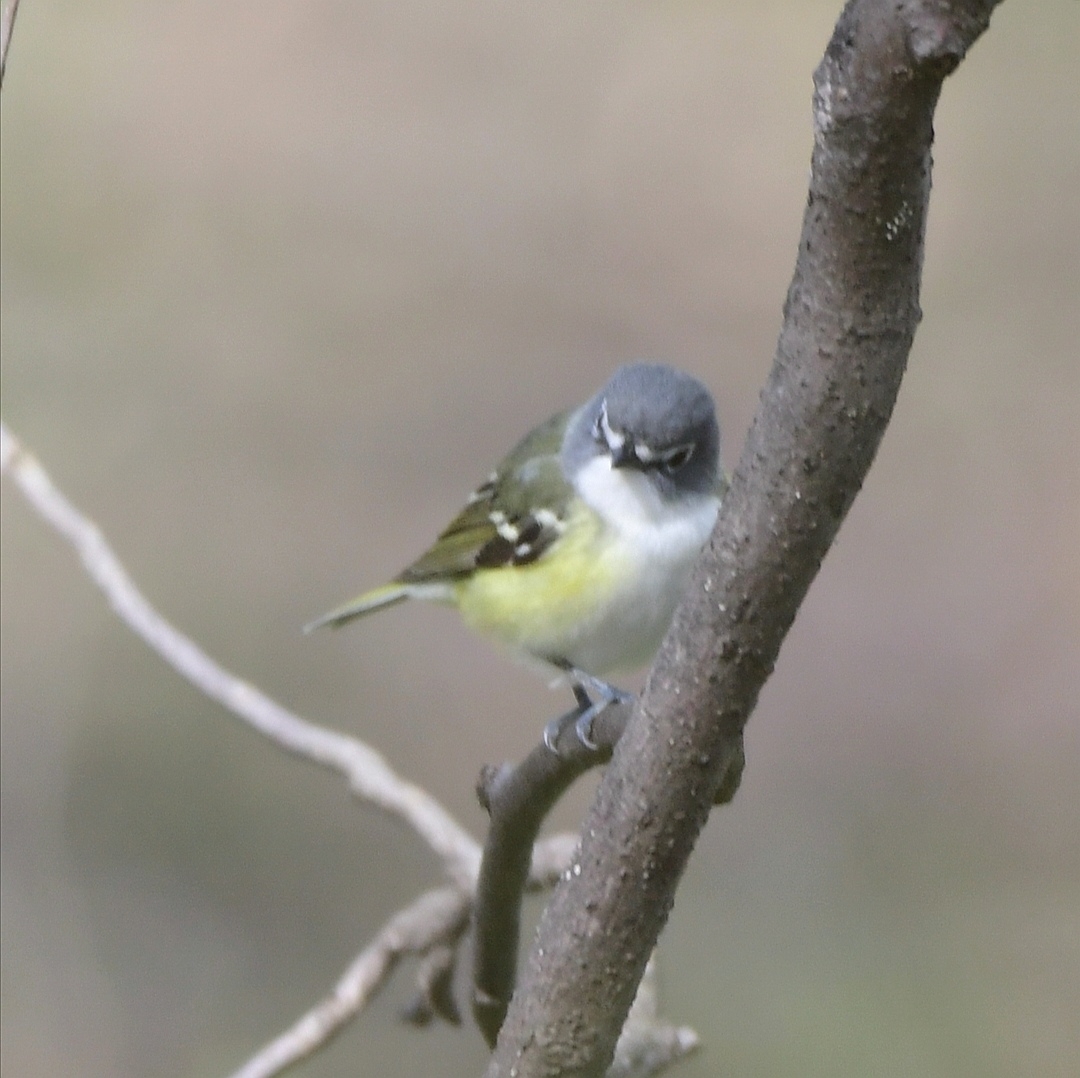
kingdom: Animalia
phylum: Chordata
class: Aves
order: Passeriformes
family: Vireonidae
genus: Vireo
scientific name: Vireo solitarius
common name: Blue-headed vireo
